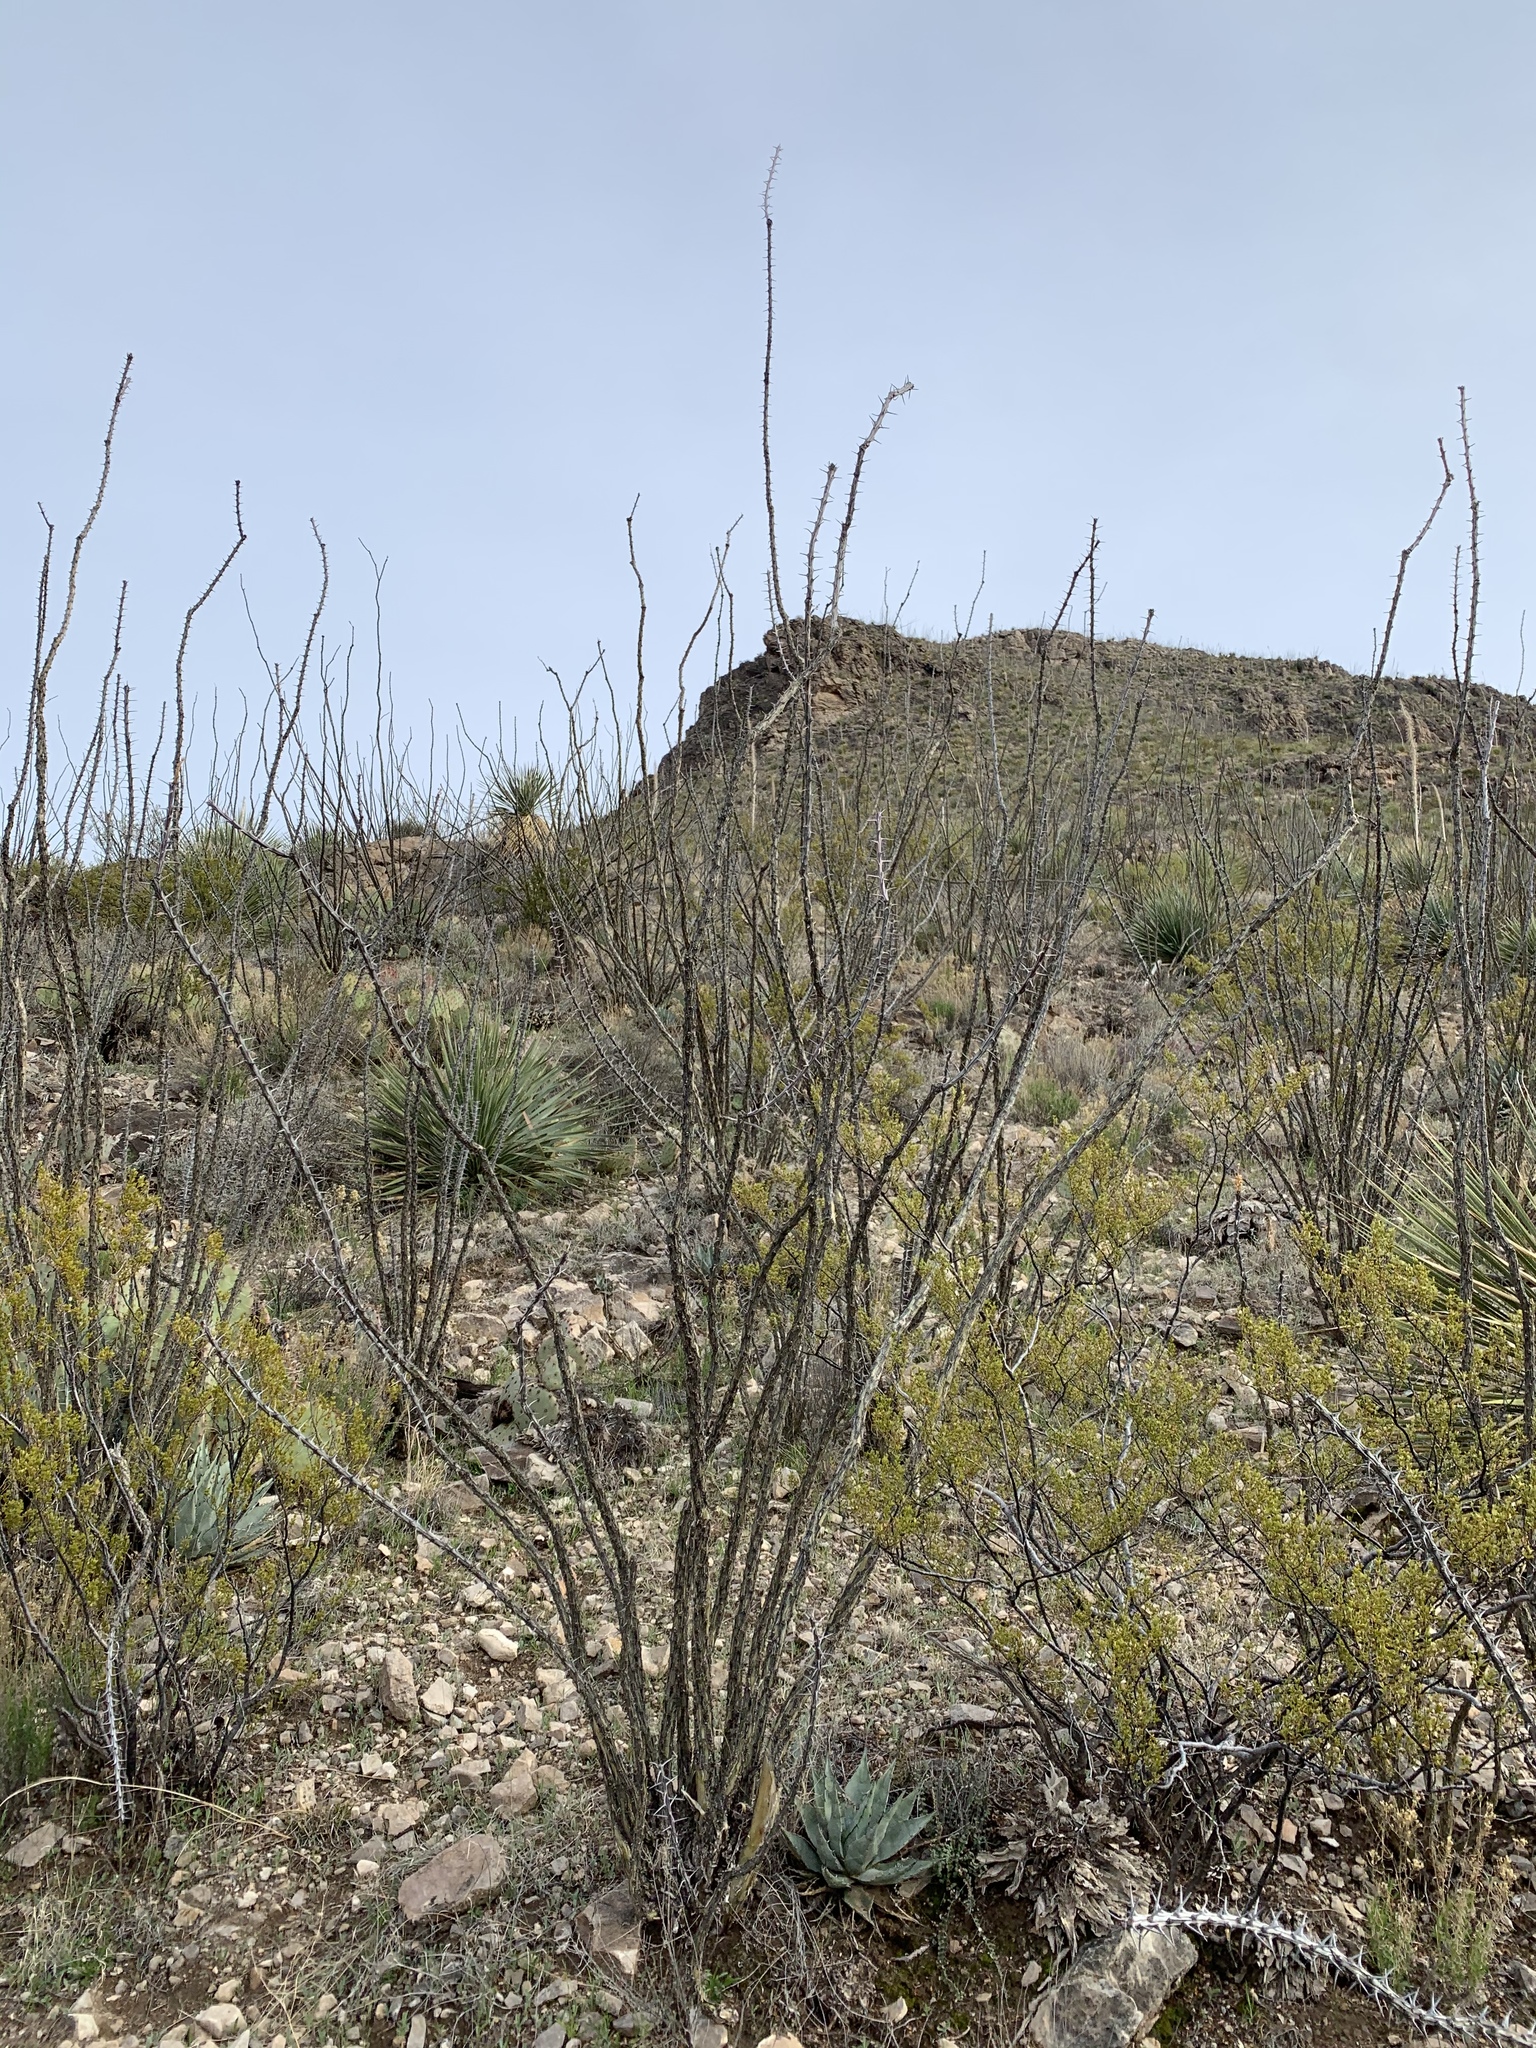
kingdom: Plantae
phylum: Tracheophyta
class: Magnoliopsida
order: Ericales
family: Fouquieriaceae
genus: Fouquieria
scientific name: Fouquieria splendens
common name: Vine-cactus
